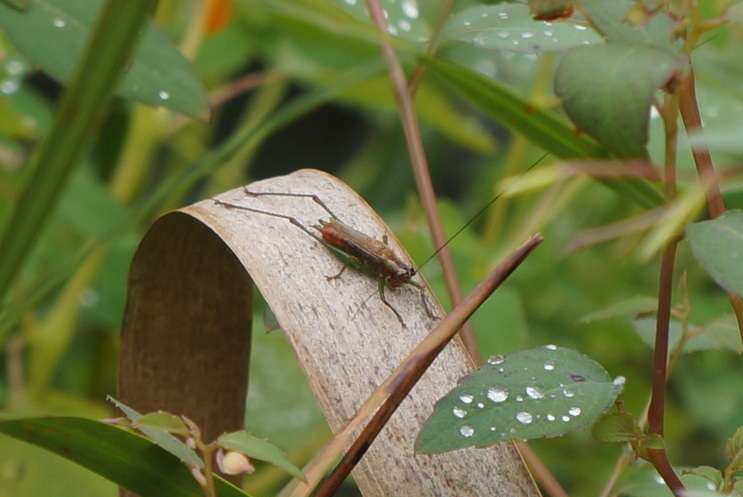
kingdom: Animalia
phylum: Arthropoda
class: Insecta
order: Orthoptera
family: Tettigoniidae
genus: Conocephalus
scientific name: Conocephalus attenuatus
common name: Long-tailed meadow katydid
